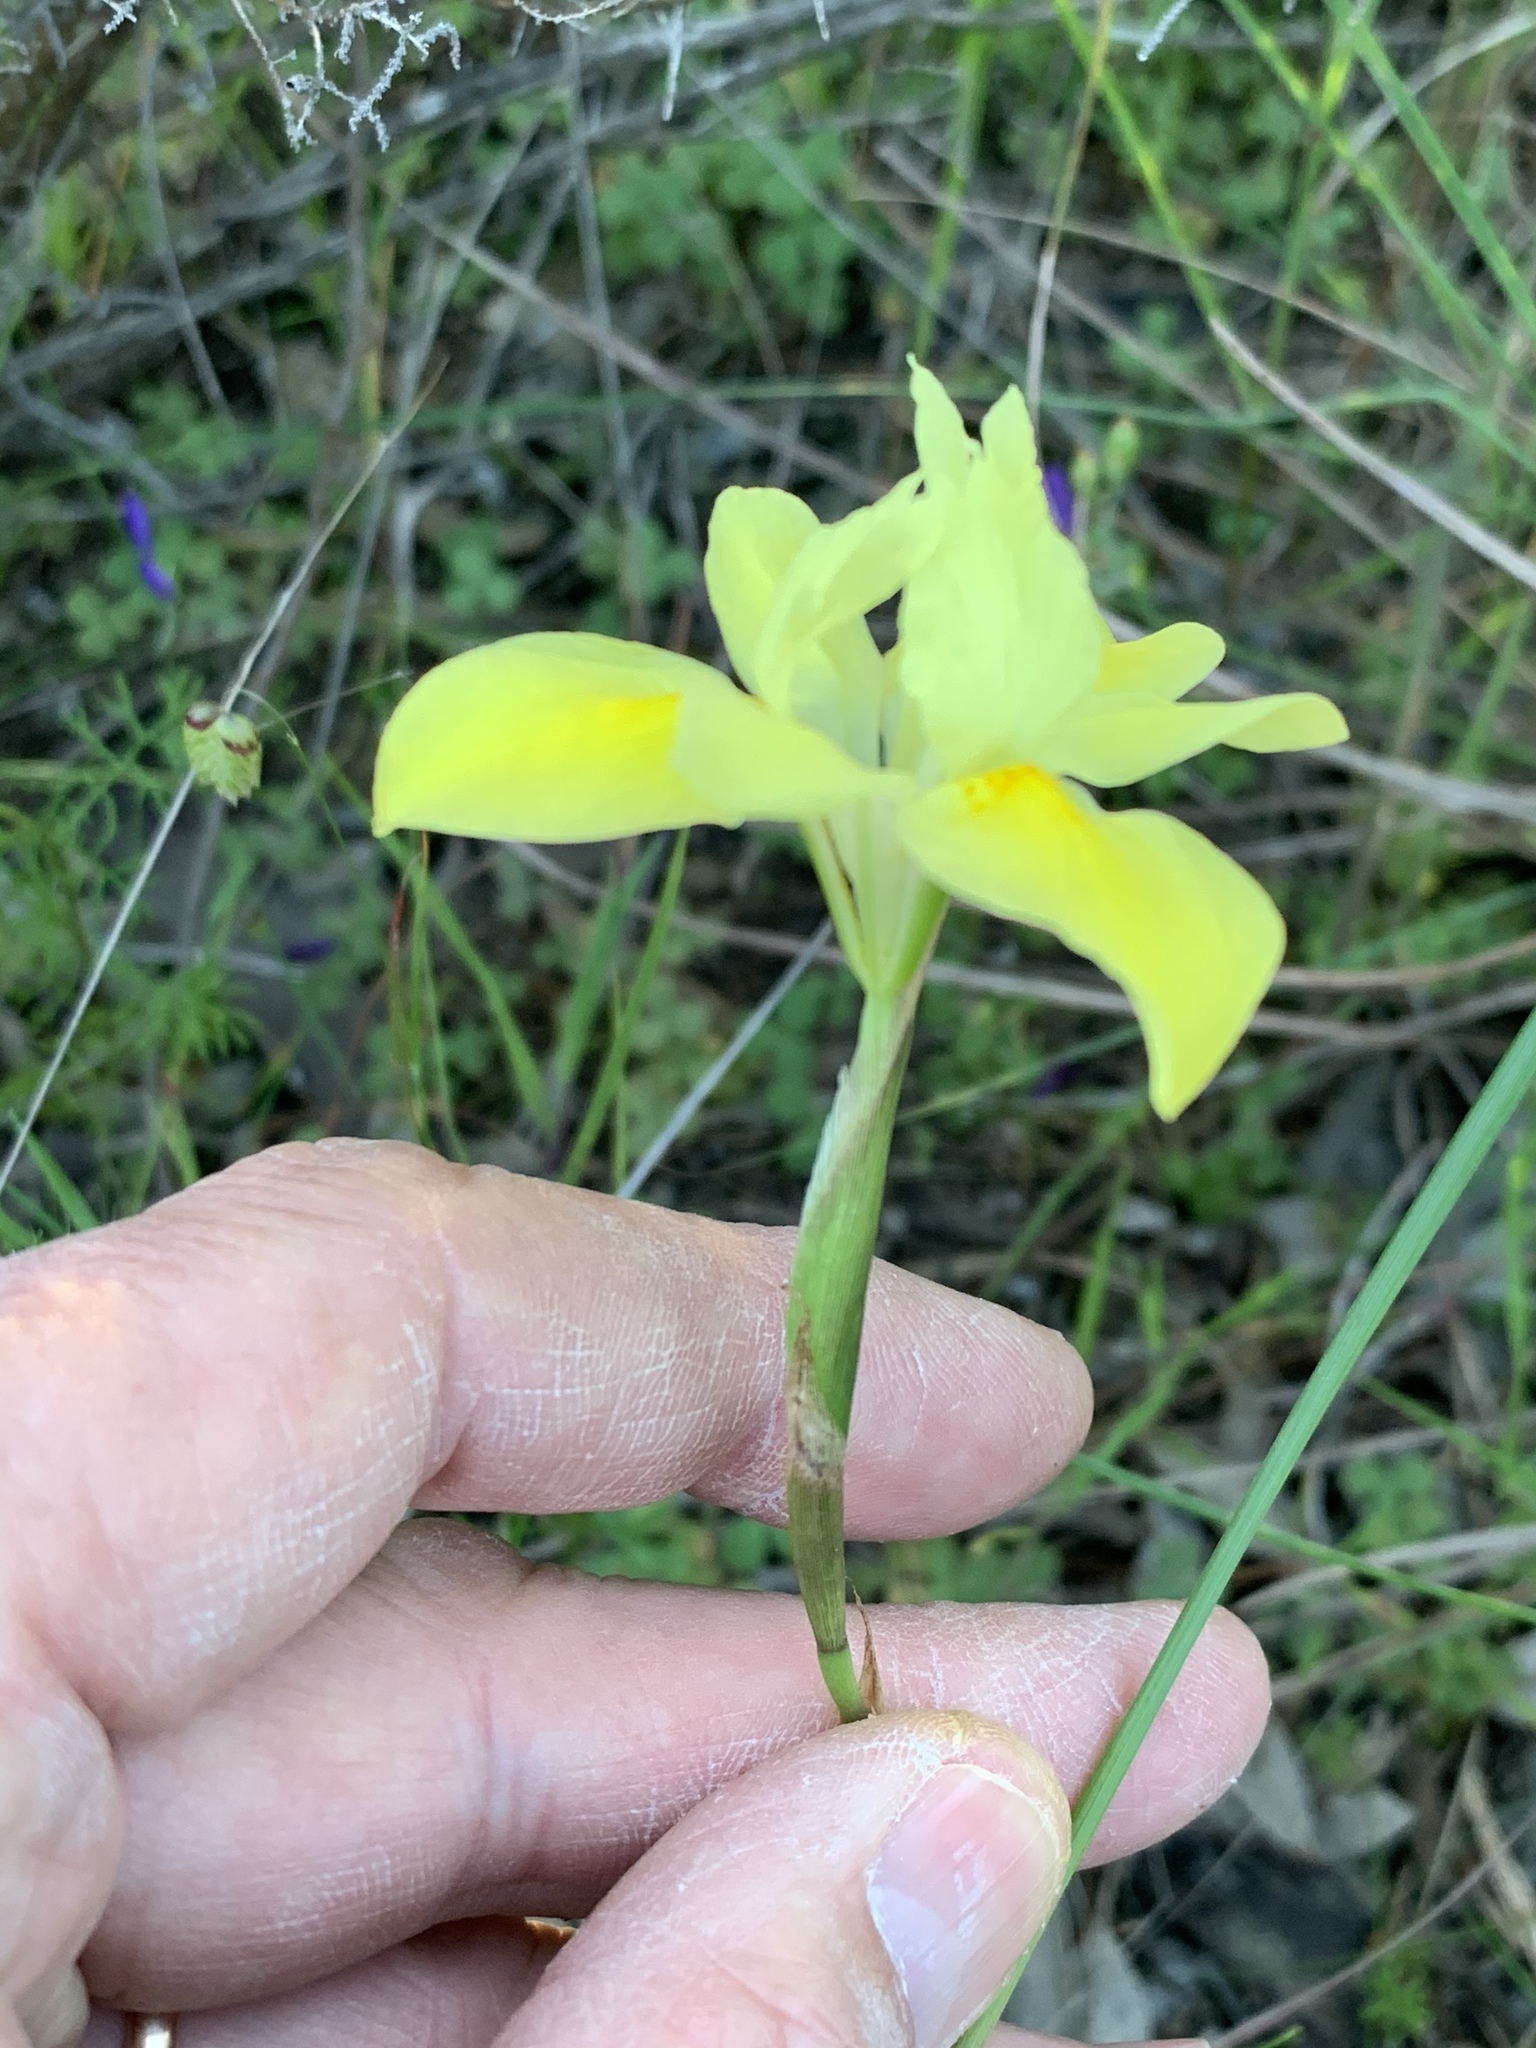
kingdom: Plantae
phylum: Tracheophyta
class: Liliopsida
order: Asparagales
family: Iridaceae
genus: Moraea
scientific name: Moraea fugax
